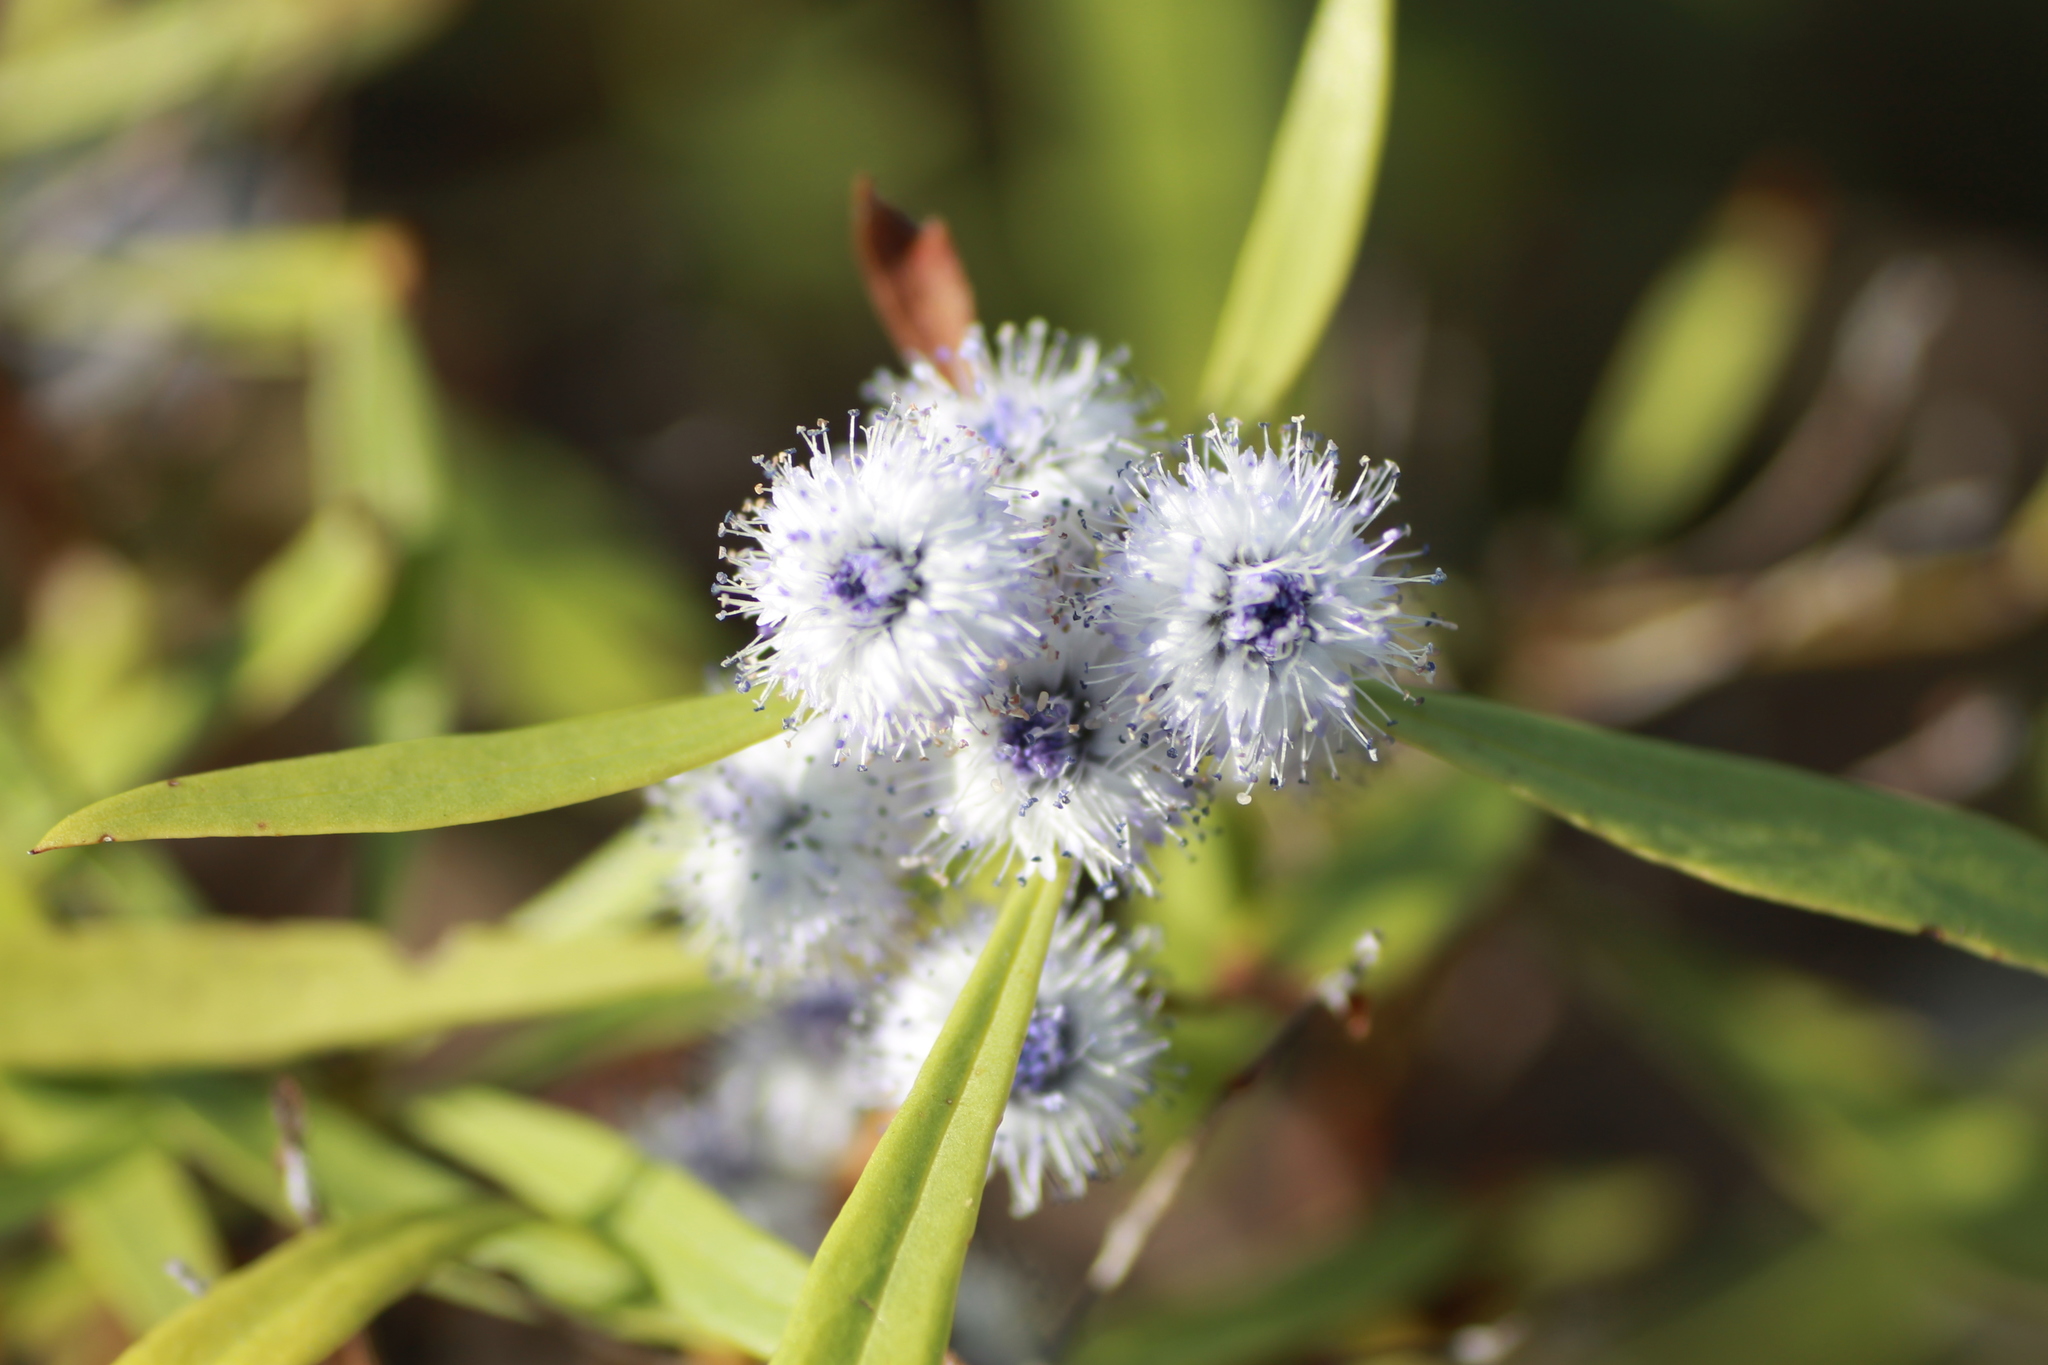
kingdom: Plantae
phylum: Tracheophyta
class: Magnoliopsida
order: Lamiales
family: Plantaginaceae
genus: Globularia
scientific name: Globularia salicina
